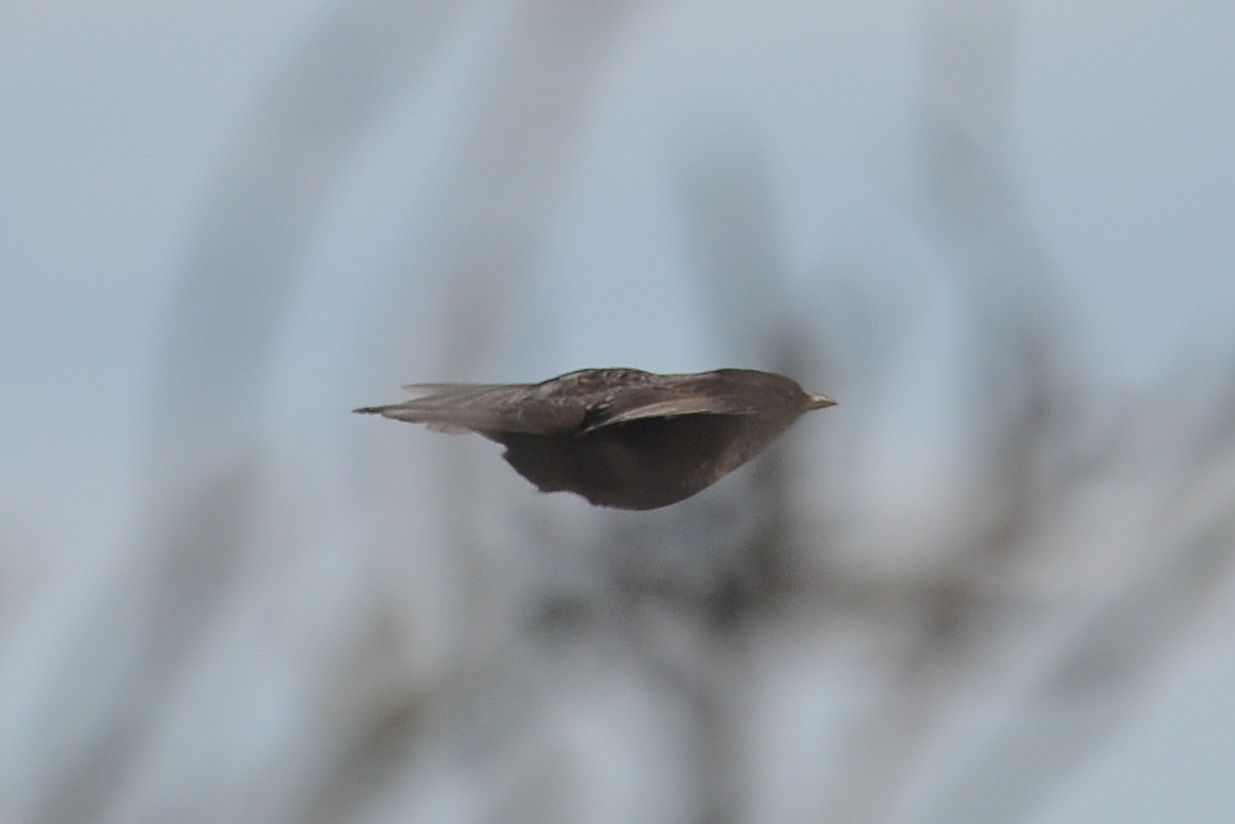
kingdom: Animalia
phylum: Chordata
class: Aves
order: Passeriformes
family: Turdidae
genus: Turdus
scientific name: Turdus merula
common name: Common blackbird
